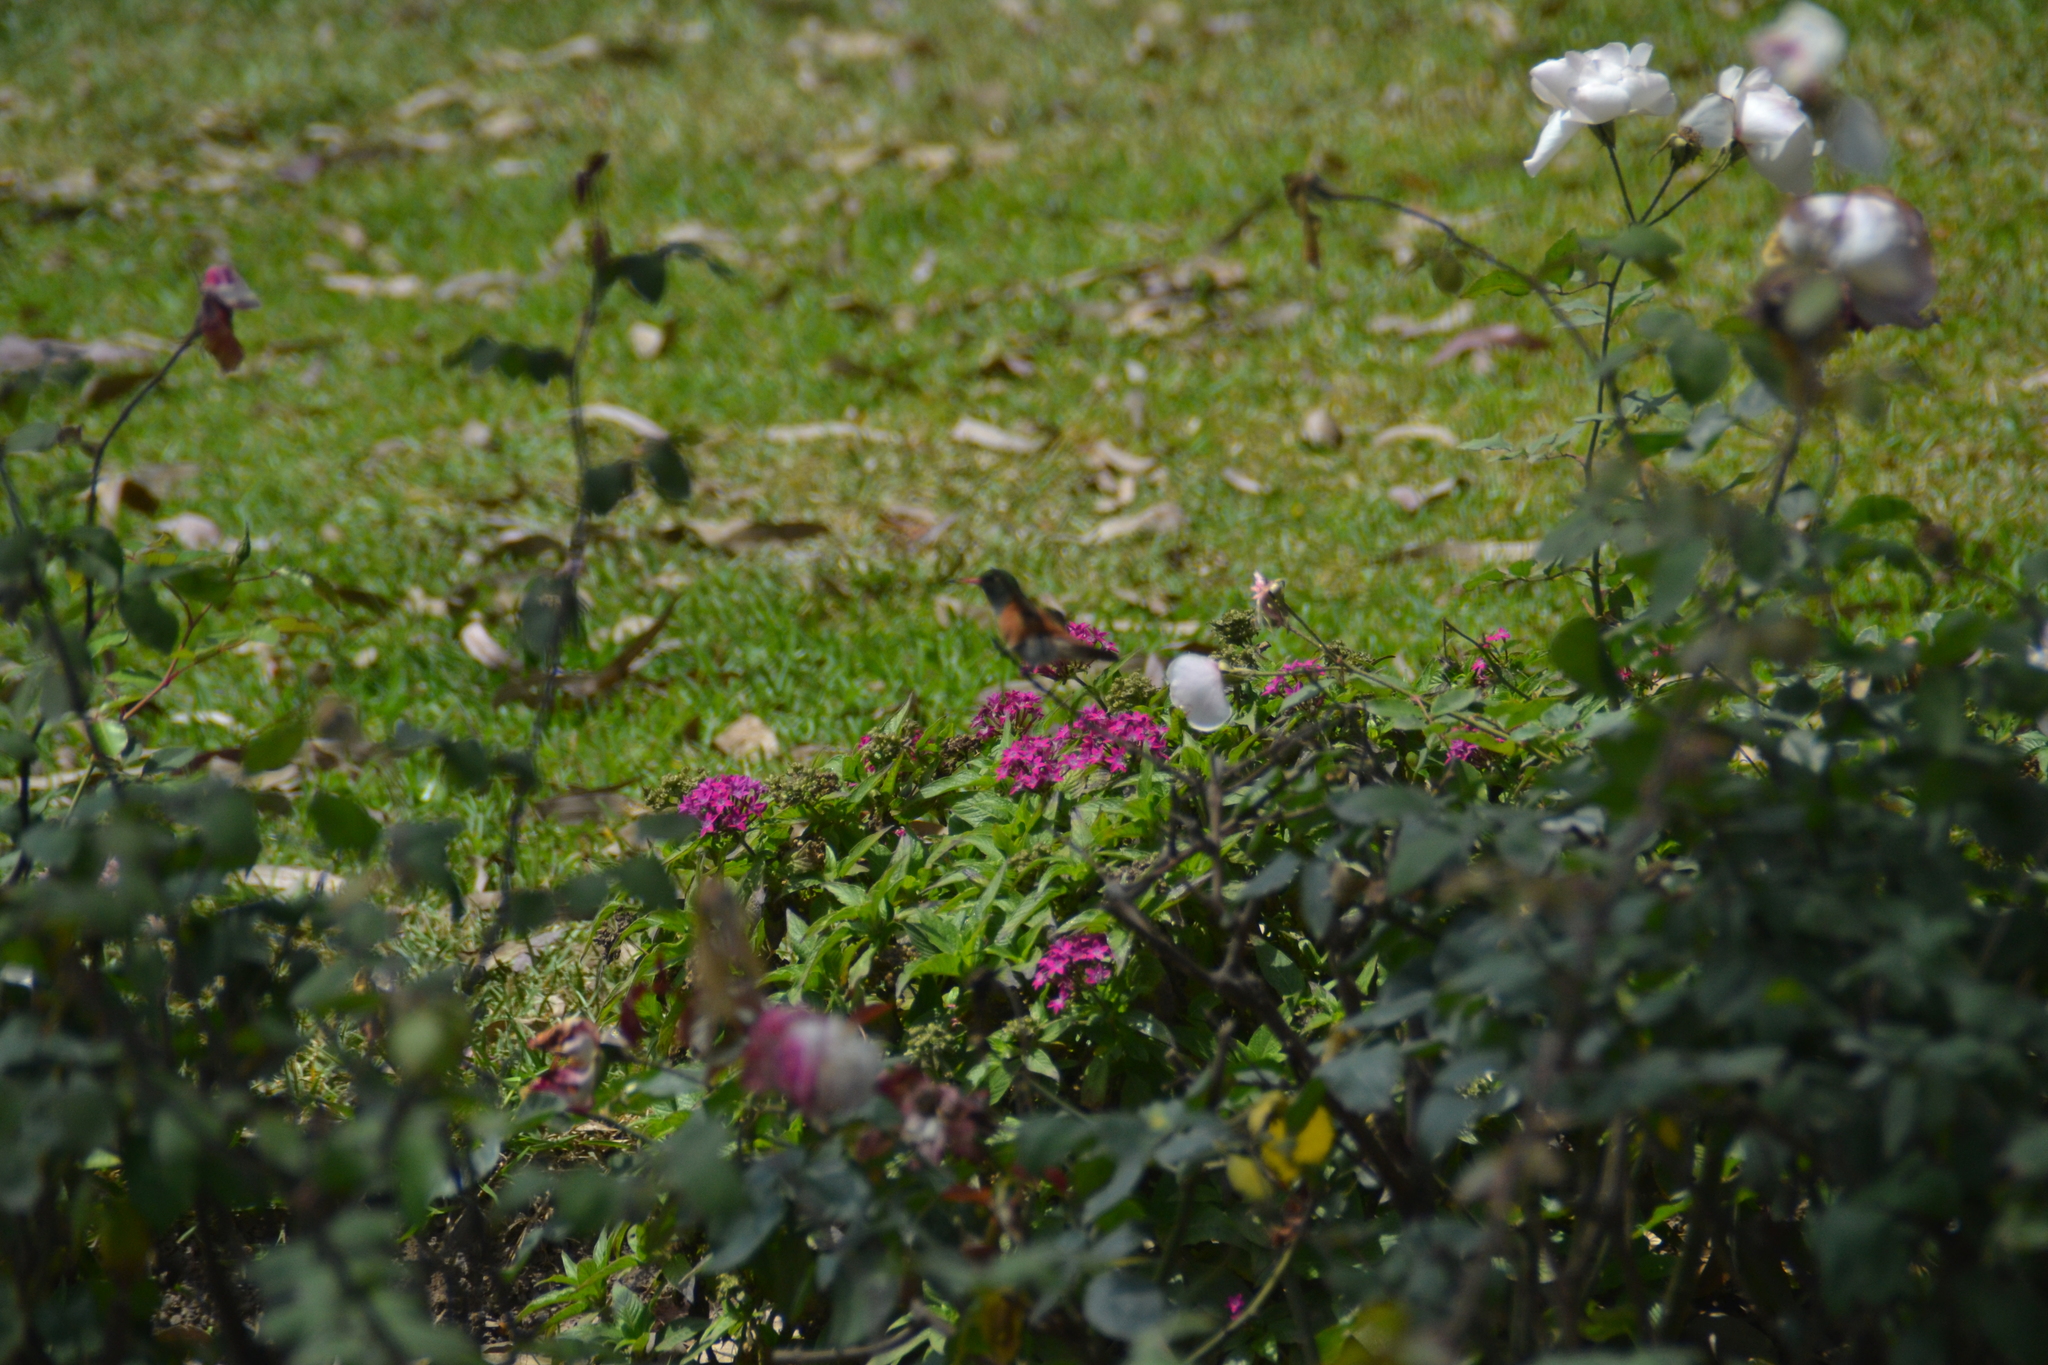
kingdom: Animalia
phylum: Chordata
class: Aves
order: Apodiformes
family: Trochilidae
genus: Amazilis
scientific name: Amazilis amazilia
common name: Amazilia hummingbird
